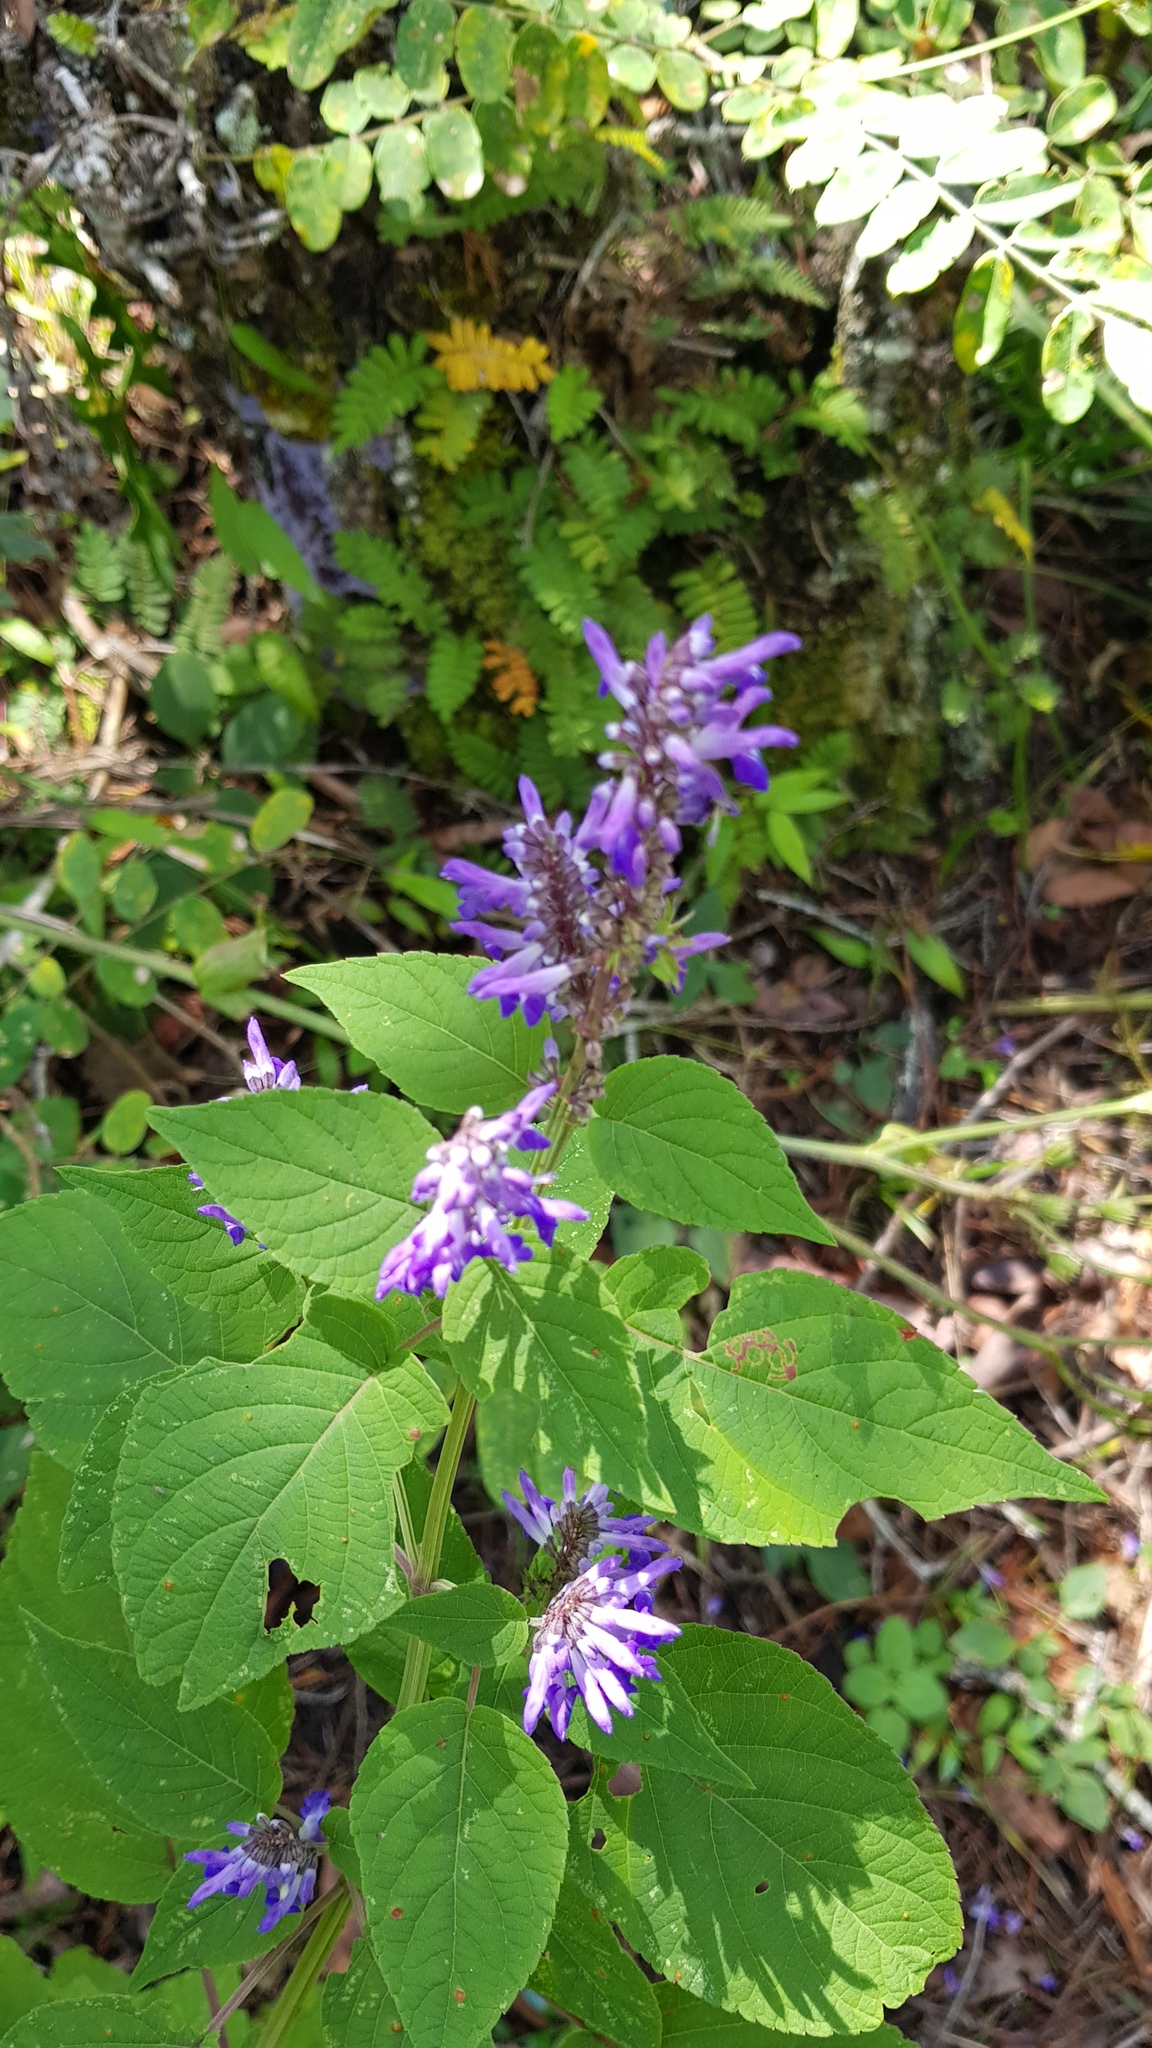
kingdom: Plantae
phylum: Tracheophyta
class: Magnoliopsida
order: Lamiales
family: Lamiaceae
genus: Salvia
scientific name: Salvia polystachia
